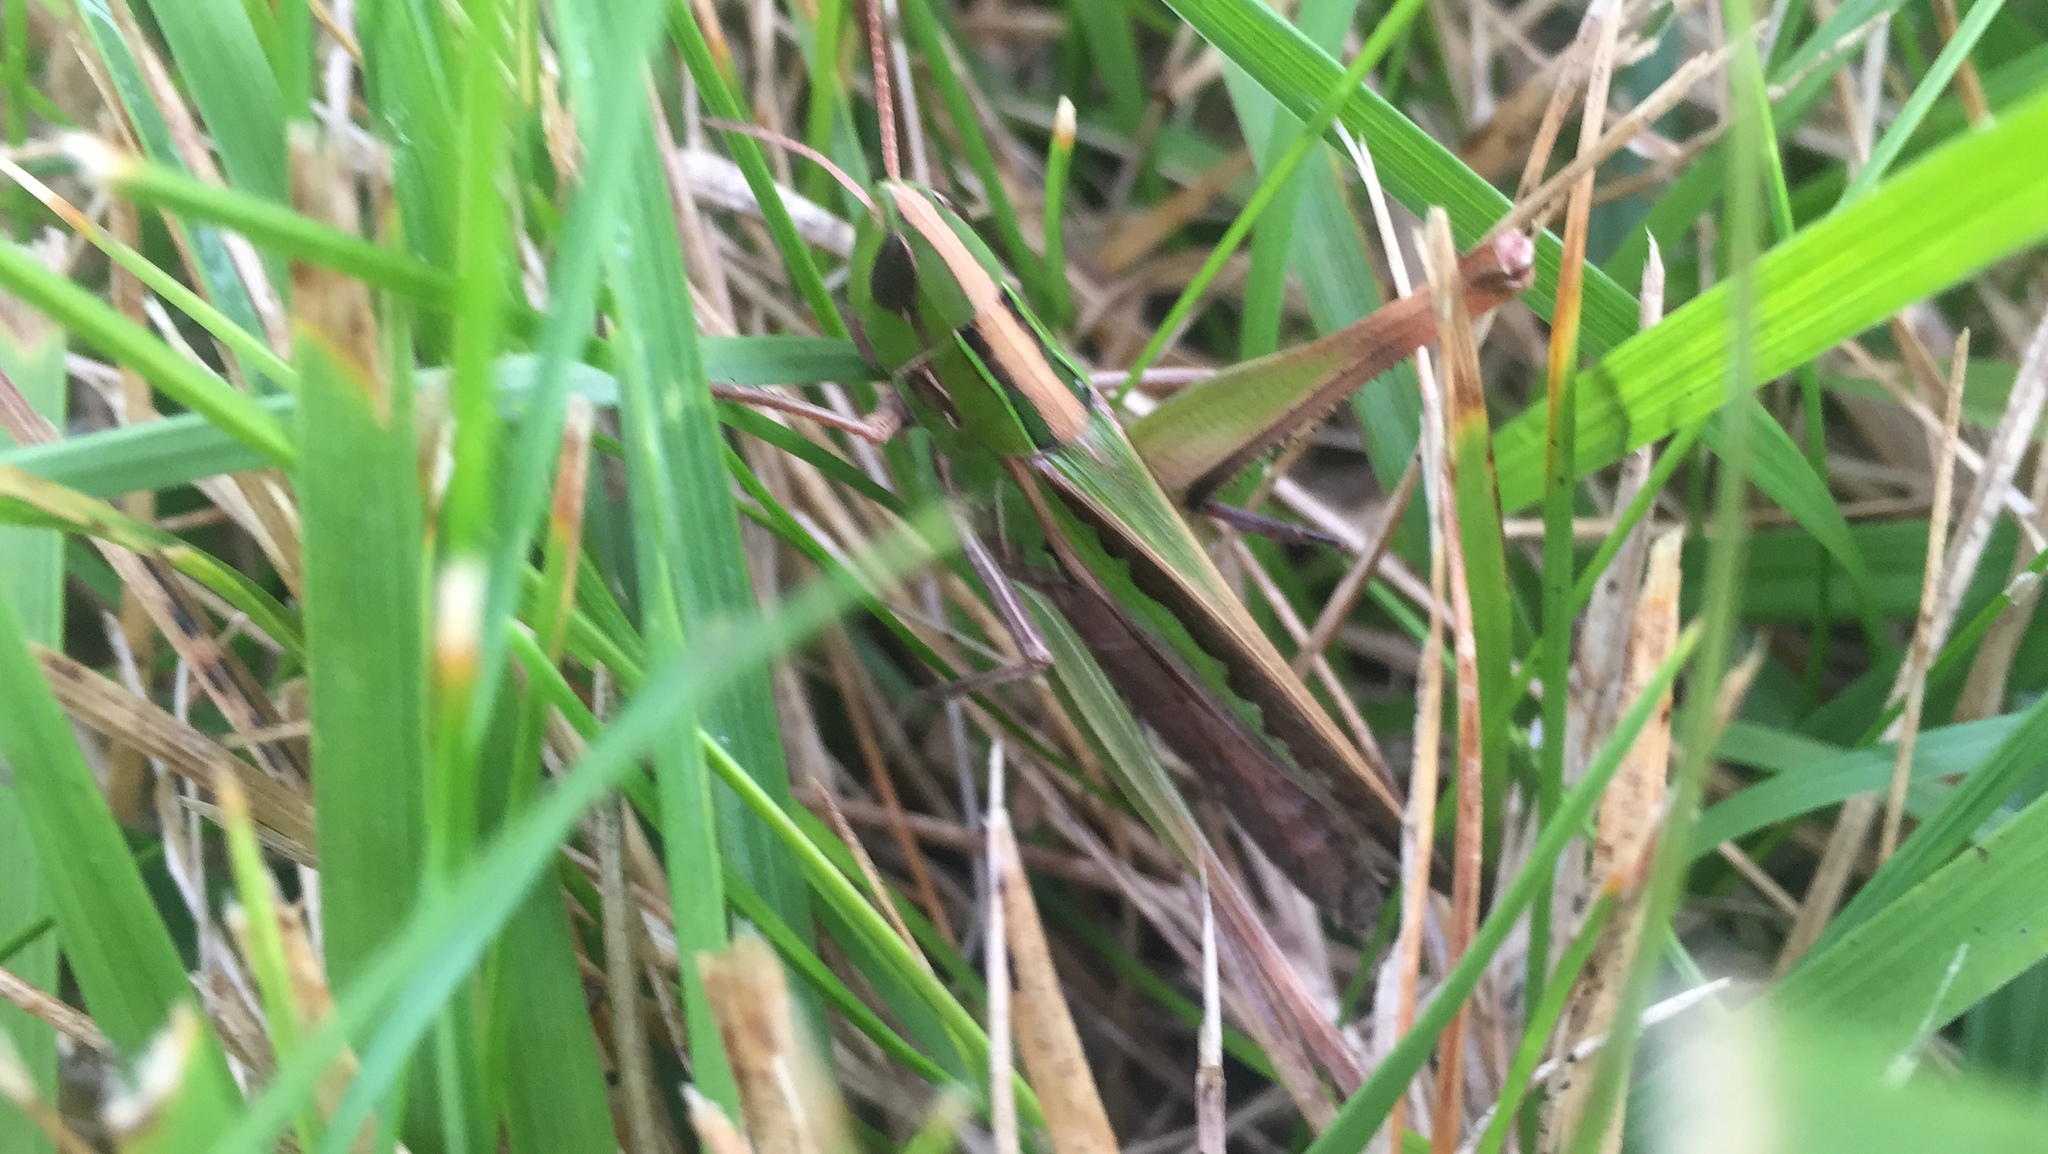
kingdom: Animalia
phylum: Arthropoda
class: Insecta
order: Orthoptera
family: Acrididae
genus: Syrbula
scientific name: Syrbula admirabilis
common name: Handsome grasshopper
